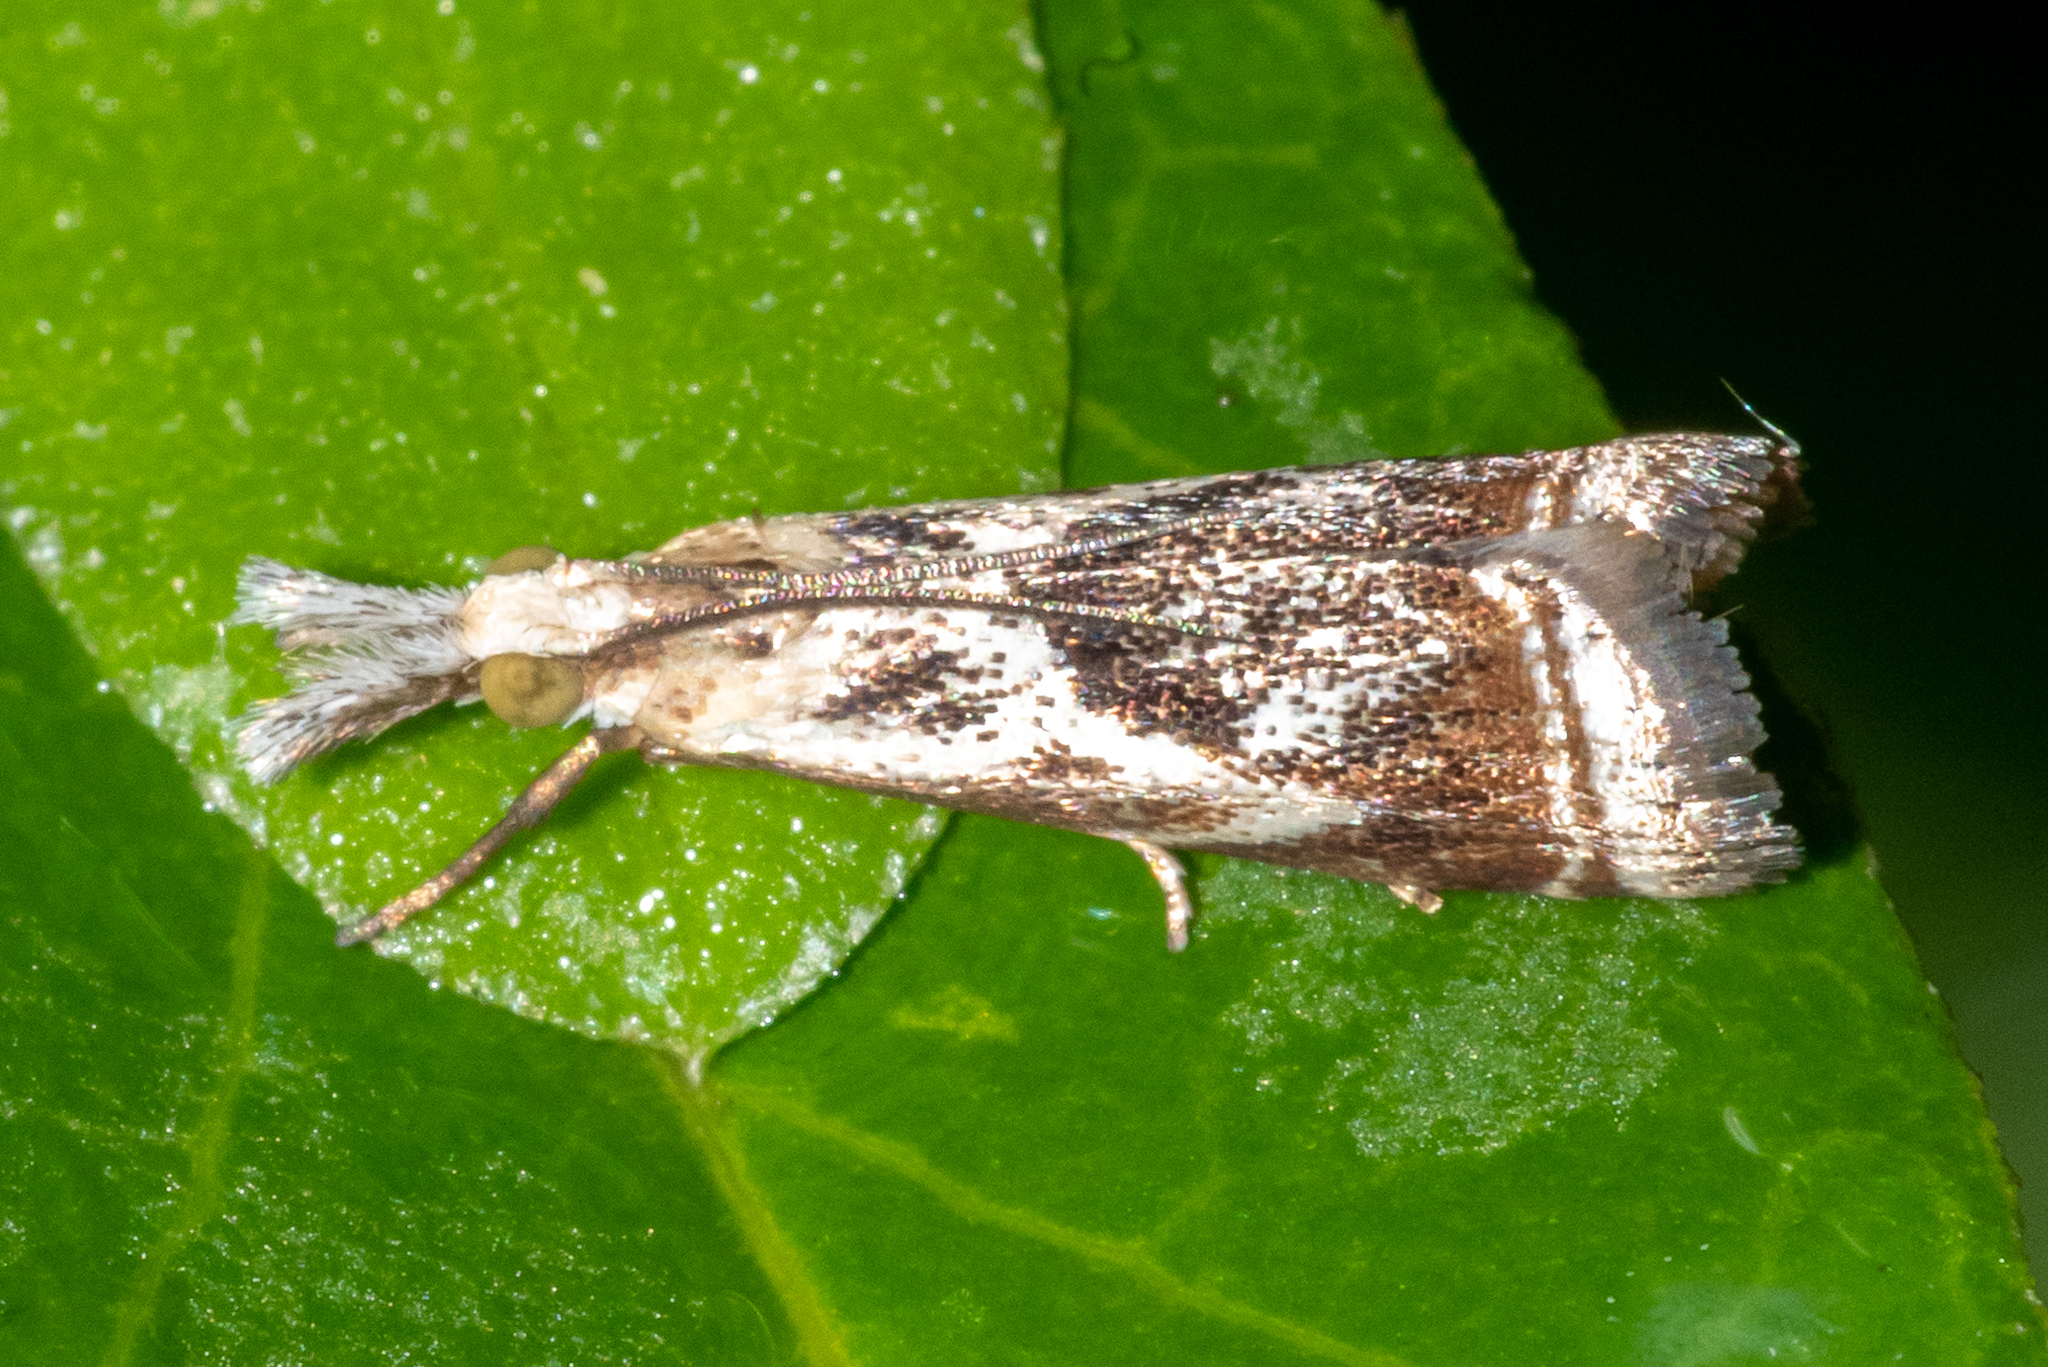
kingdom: Animalia
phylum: Arthropoda
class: Insecta
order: Lepidoptera
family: Crambidae
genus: Microcrambus
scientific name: Microcrambus elegans
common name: Elegant grass-veneer
